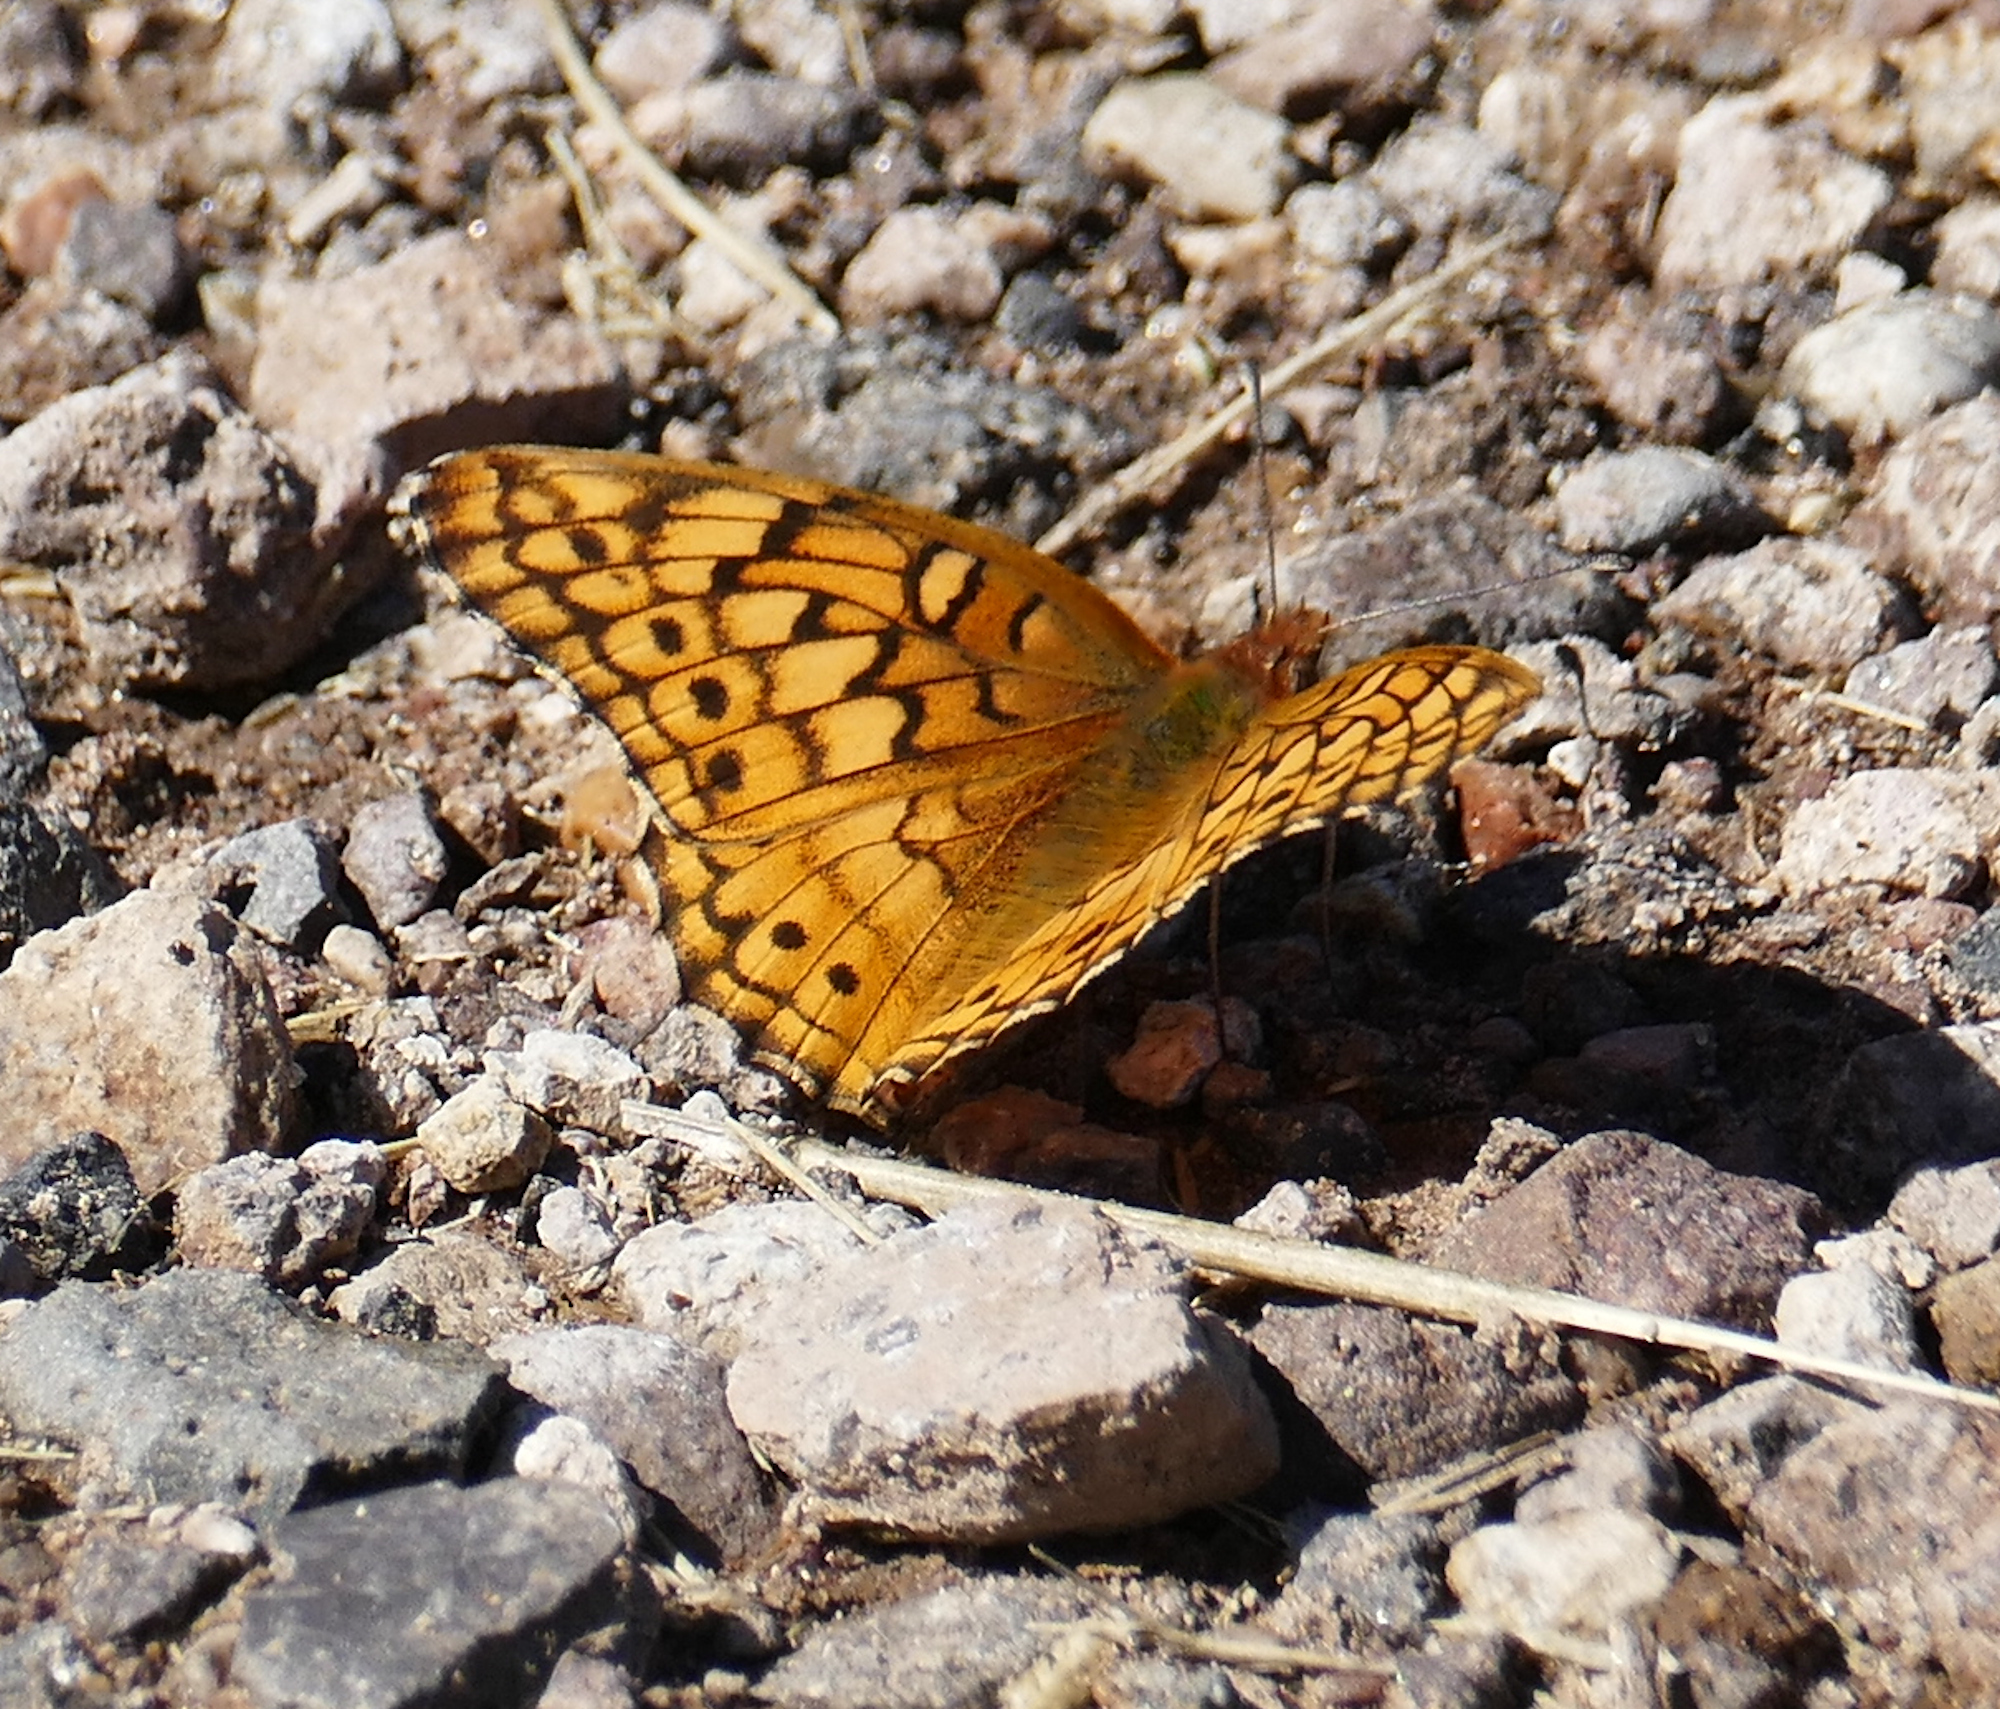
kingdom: Animalia
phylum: Arthropoda
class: Insecta
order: Lepidoptera
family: Nymphalidae
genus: Euptoieta
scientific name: Euptoieta claudia
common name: Variegated fritillary
